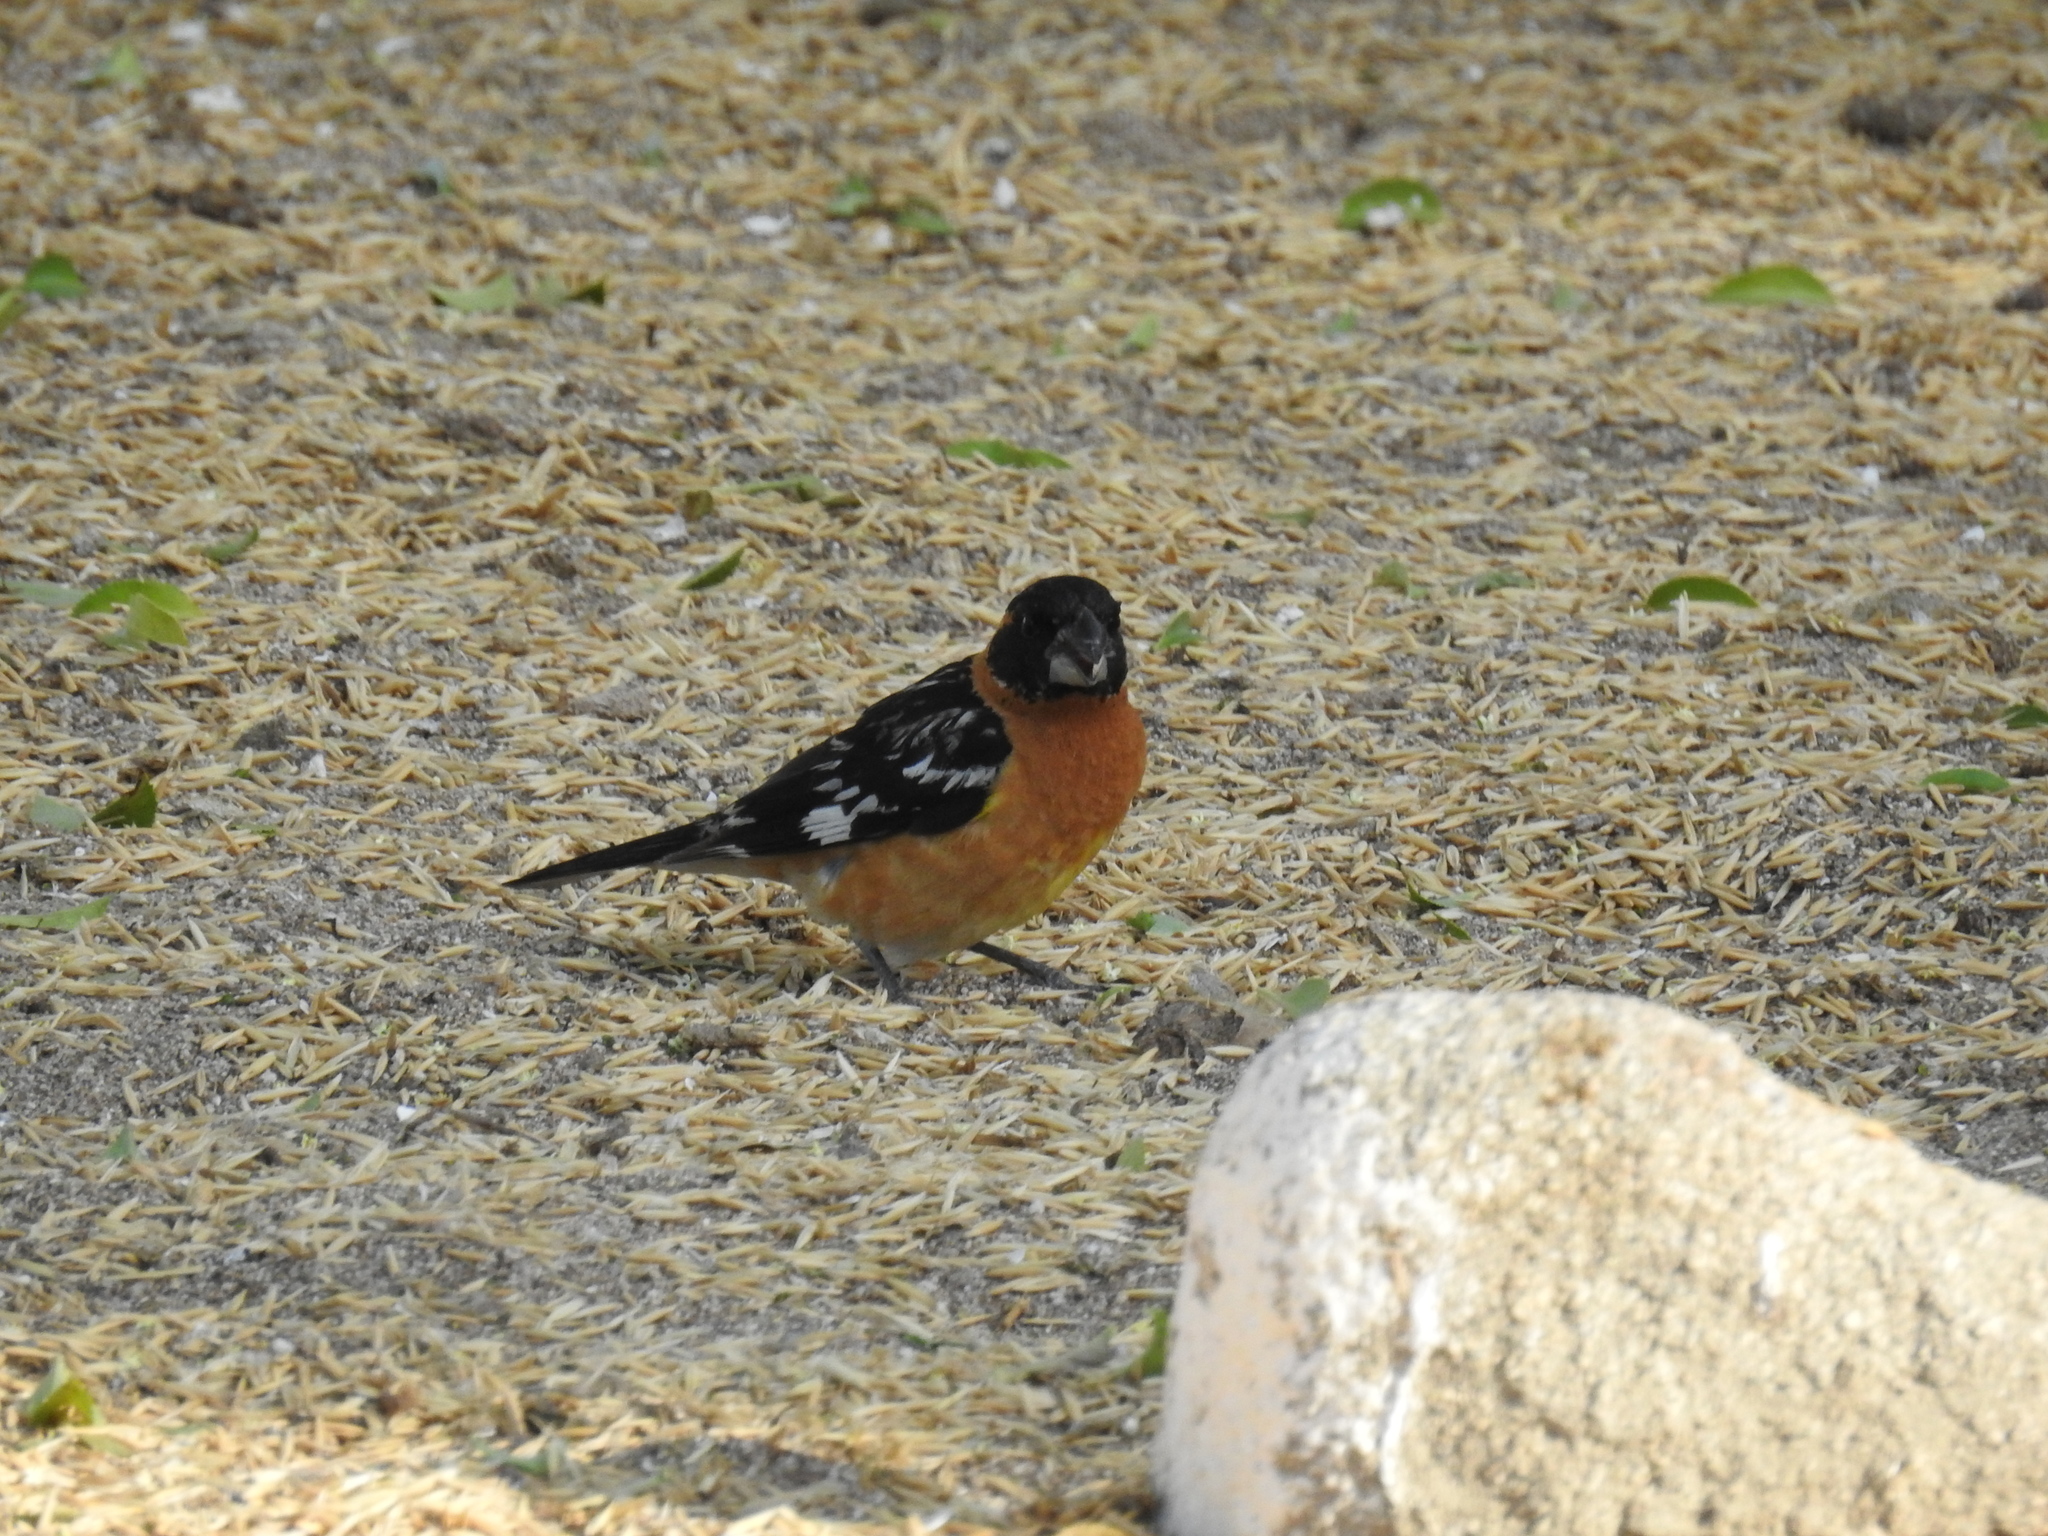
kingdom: Animalia
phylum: Chordata
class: Aves
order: Passeriformes
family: Cardinalidae
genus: Pheucticus
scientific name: Pheucticus melanocephalus
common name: Black-headed grosbeak
